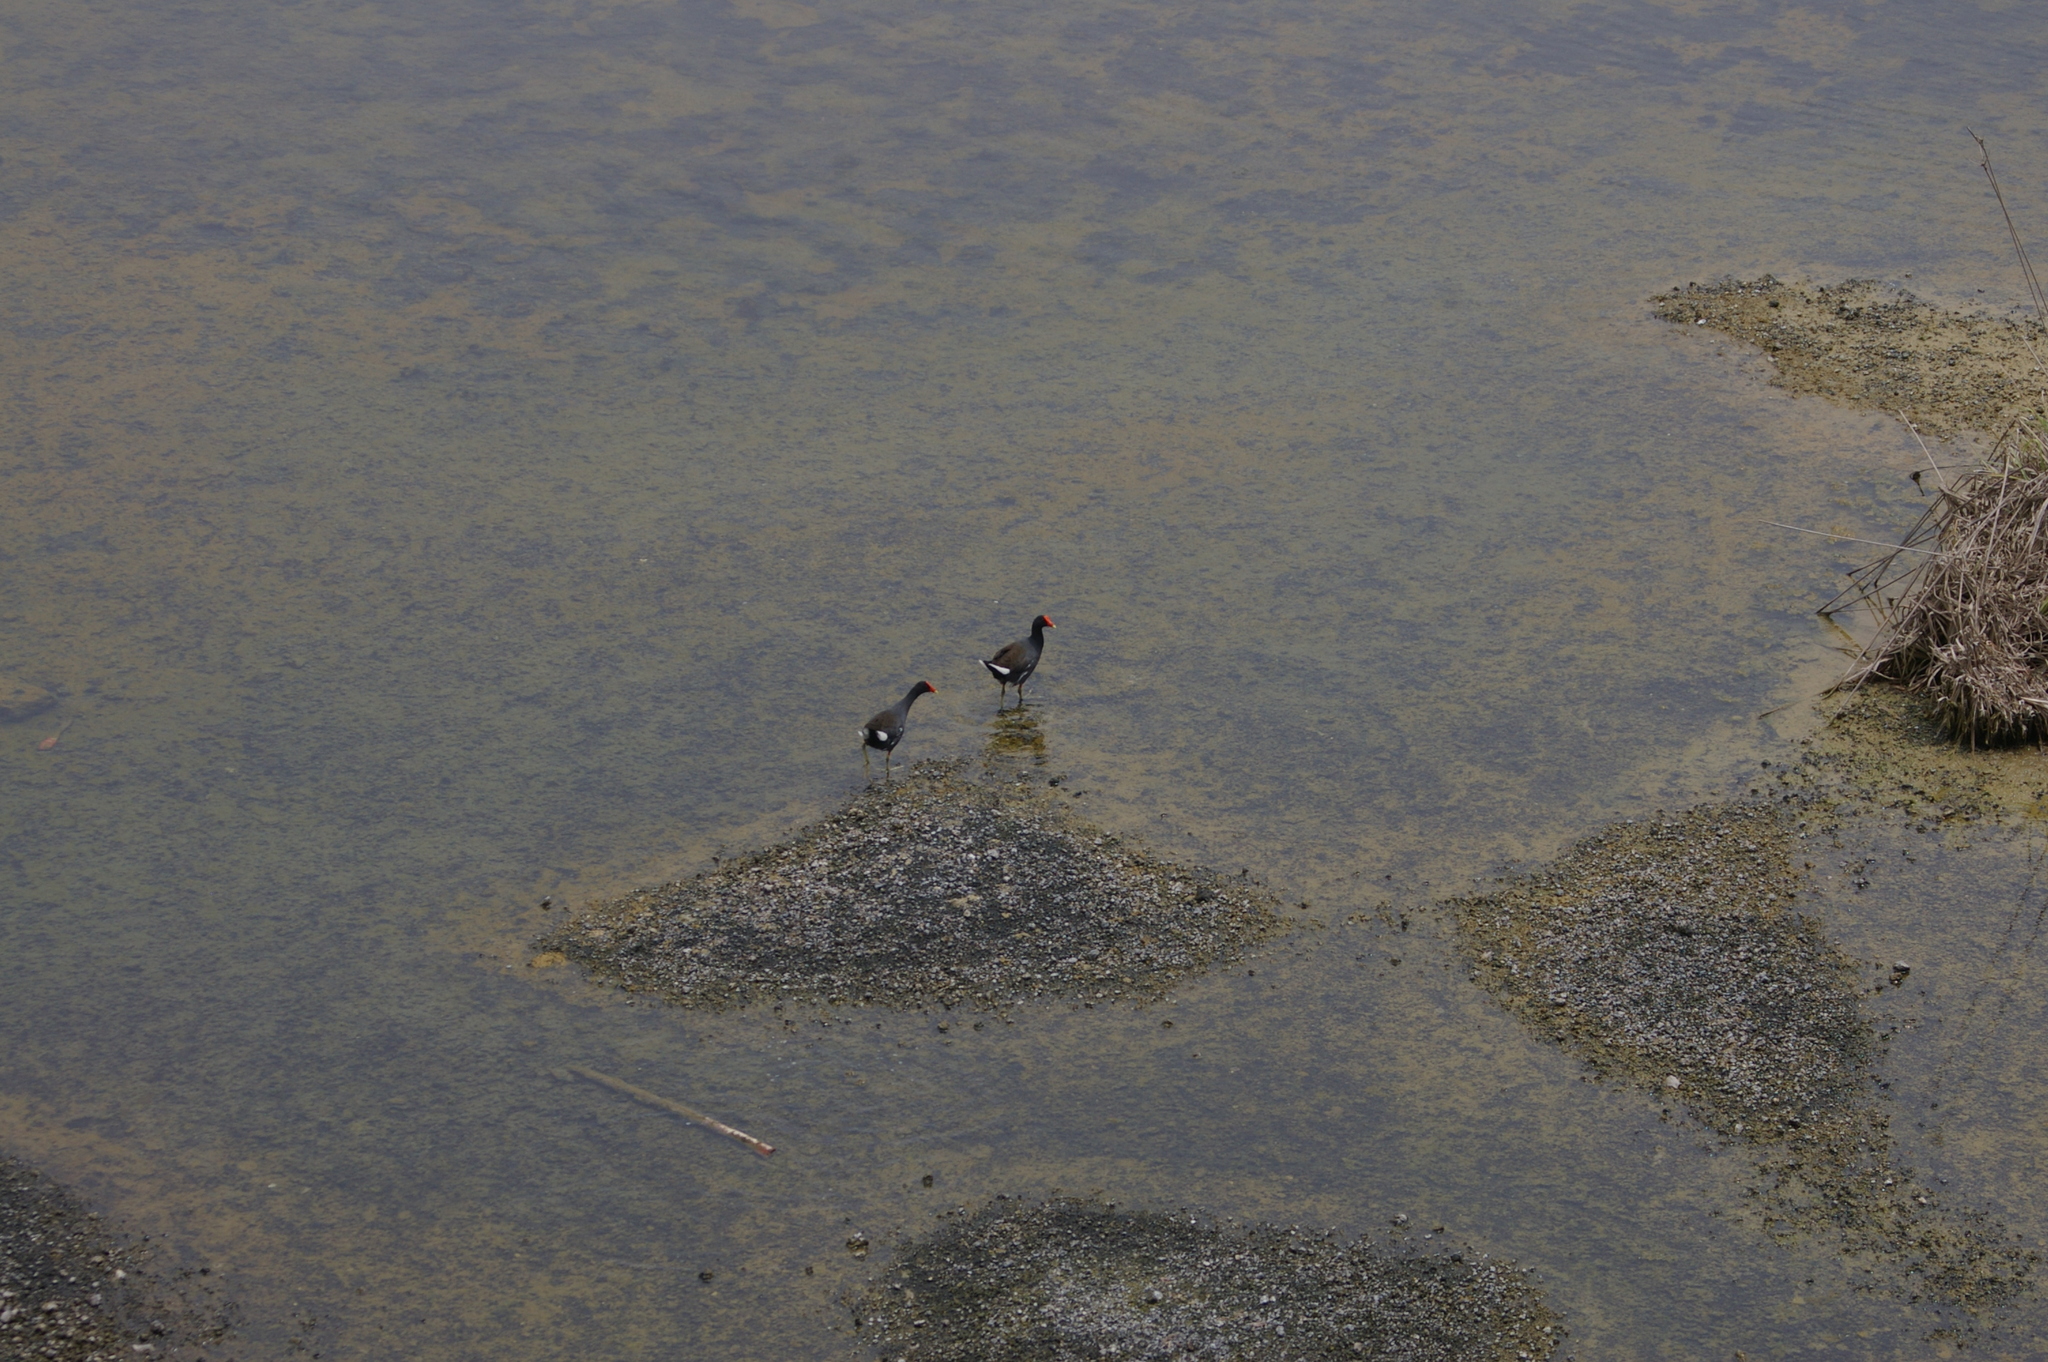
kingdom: Animalia
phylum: Chordata
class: Aves
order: Gruiformes
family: Rallidae
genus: Gallinula
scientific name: Gallinula chloropus
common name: Common moorhen
